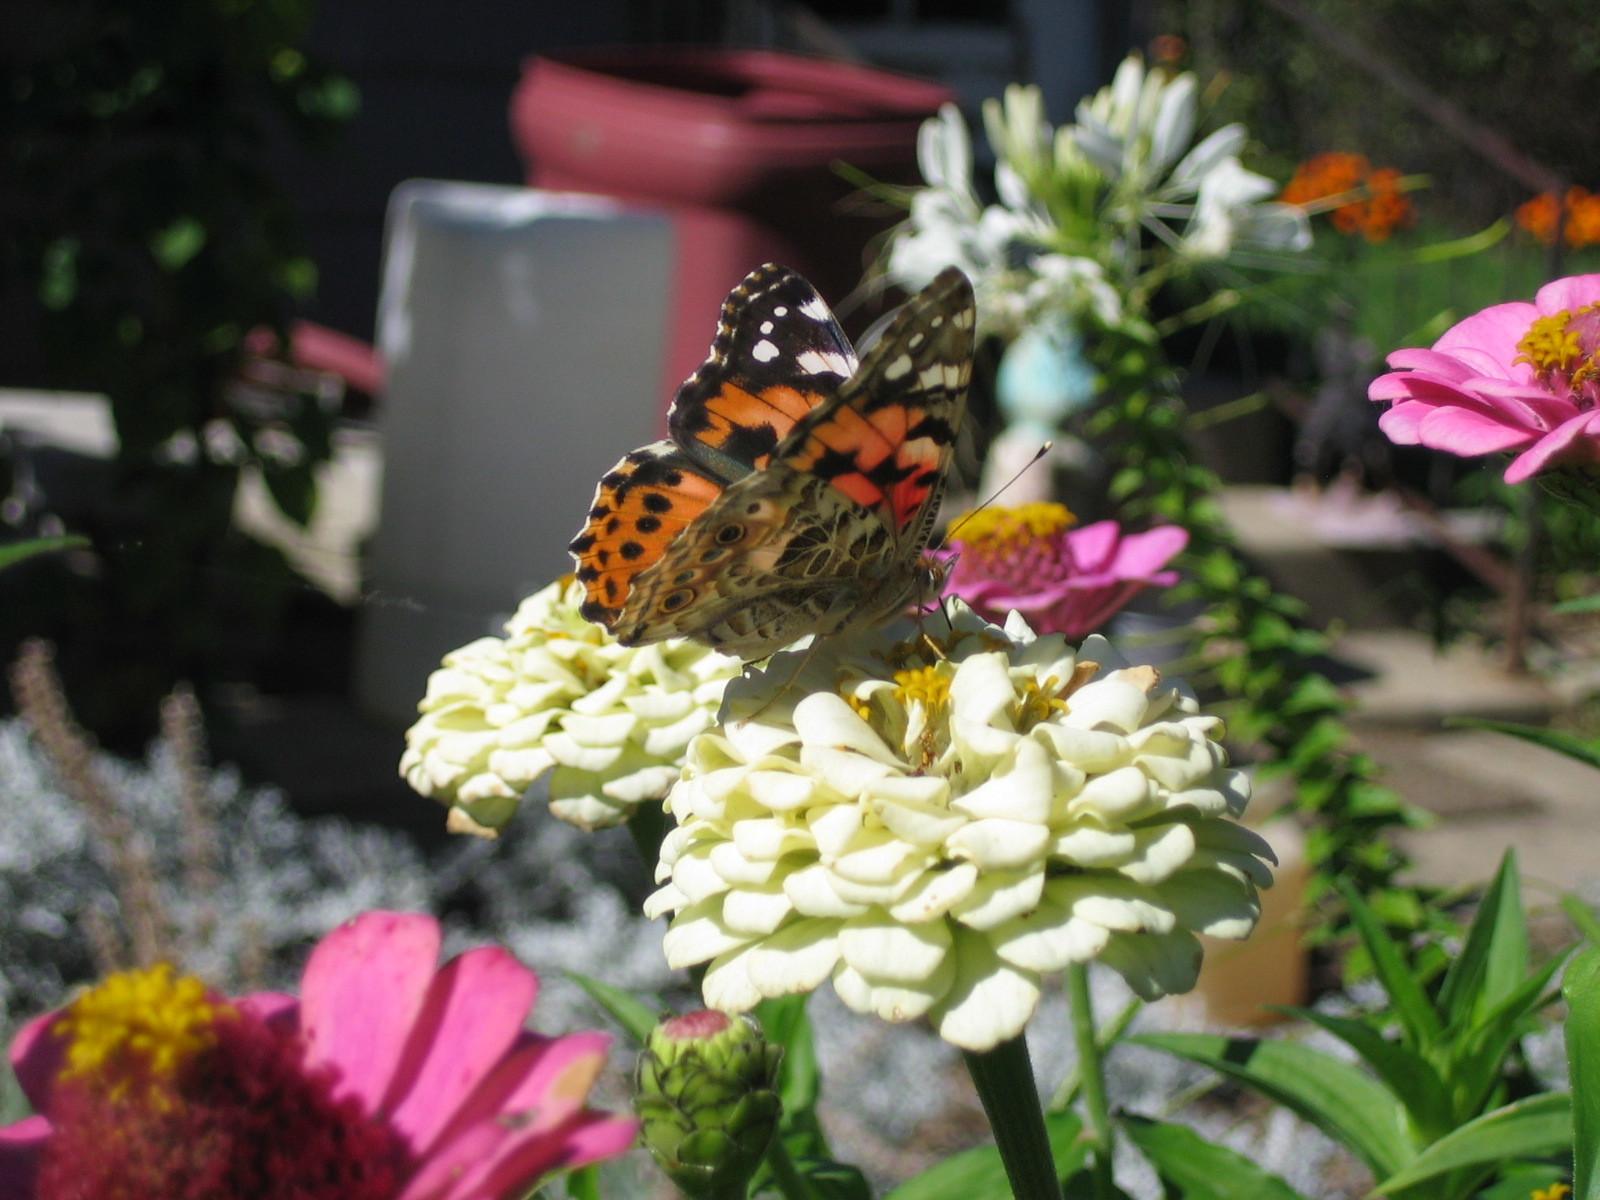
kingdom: Animalia
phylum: Arthropoda
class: Insecta
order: Lepidoptera
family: Nymphalidae
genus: Vanessa
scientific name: Vanessa cardui
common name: Painted lady
